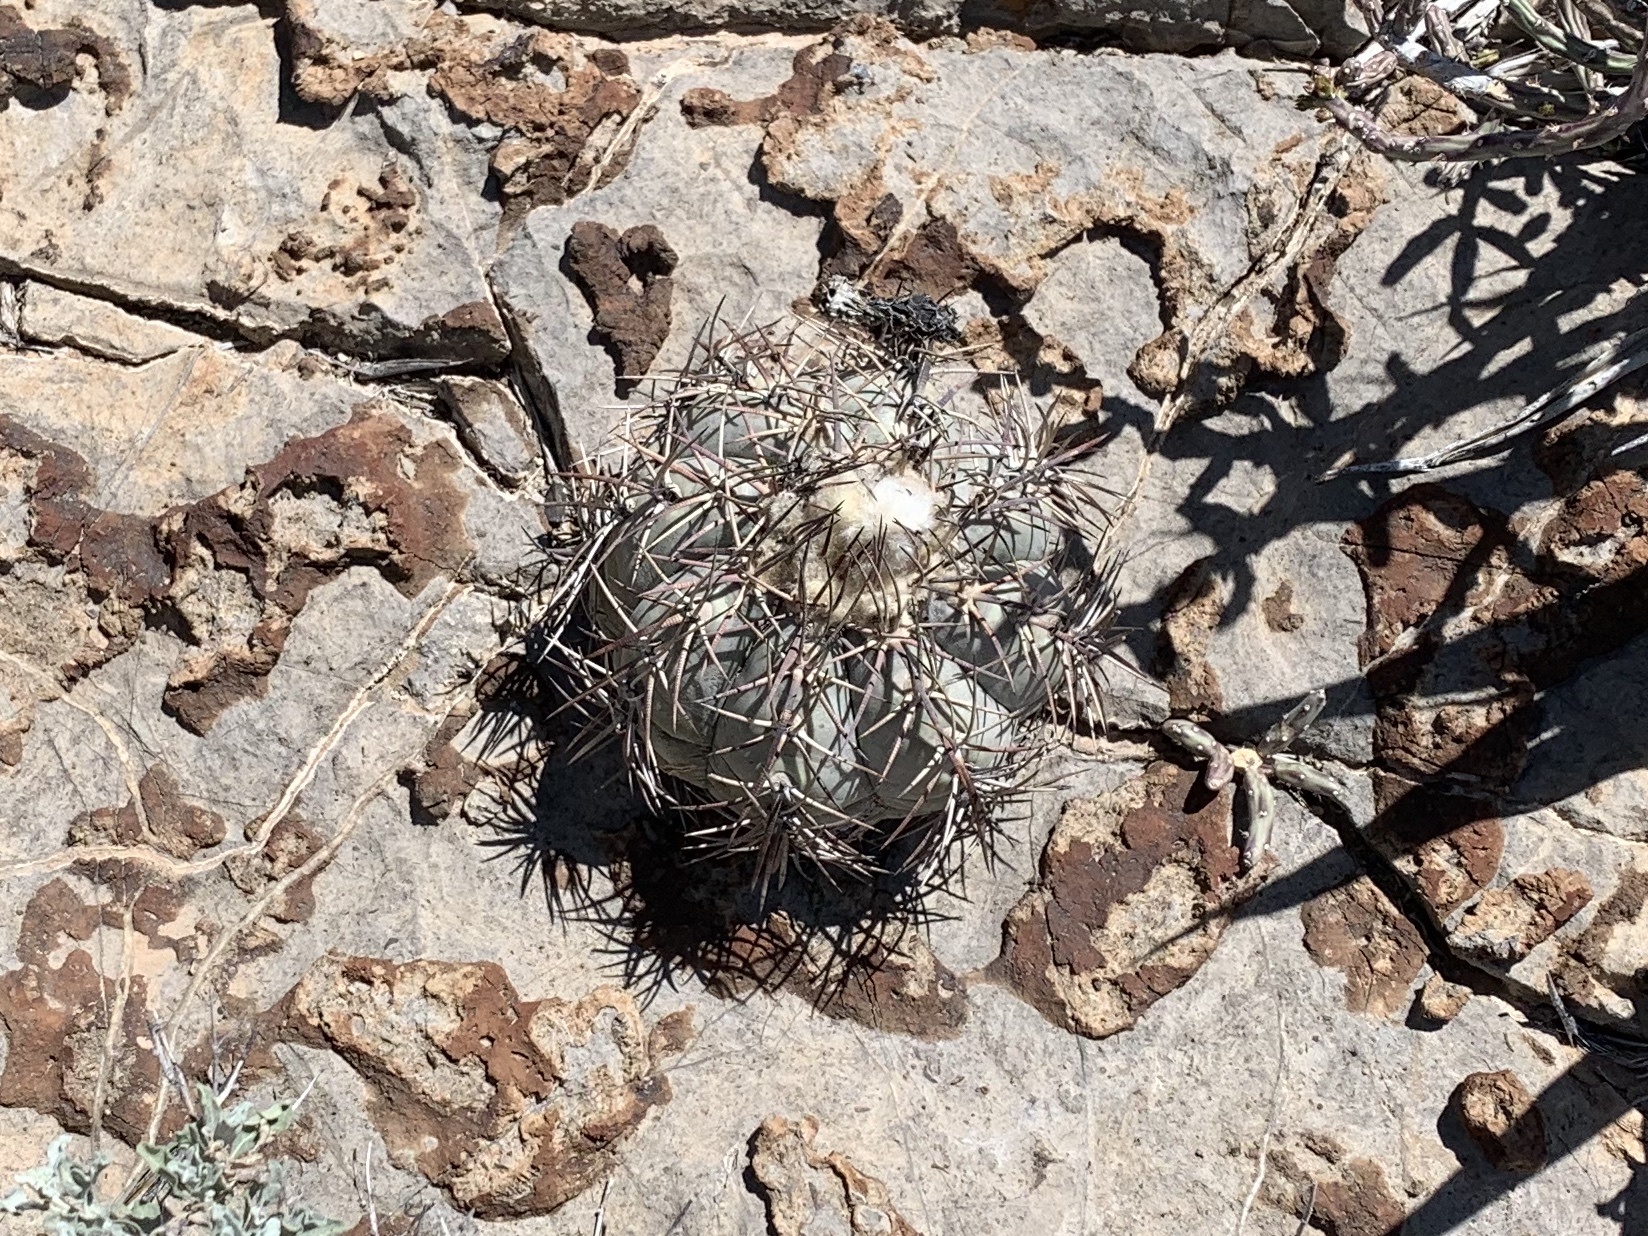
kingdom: Plantae
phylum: Tracheophyta
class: Magnoliopsida
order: Caryophyllales
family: Cactaceae
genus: Echinocactus
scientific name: Echinocactus horizonthalonius
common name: Devilshead
